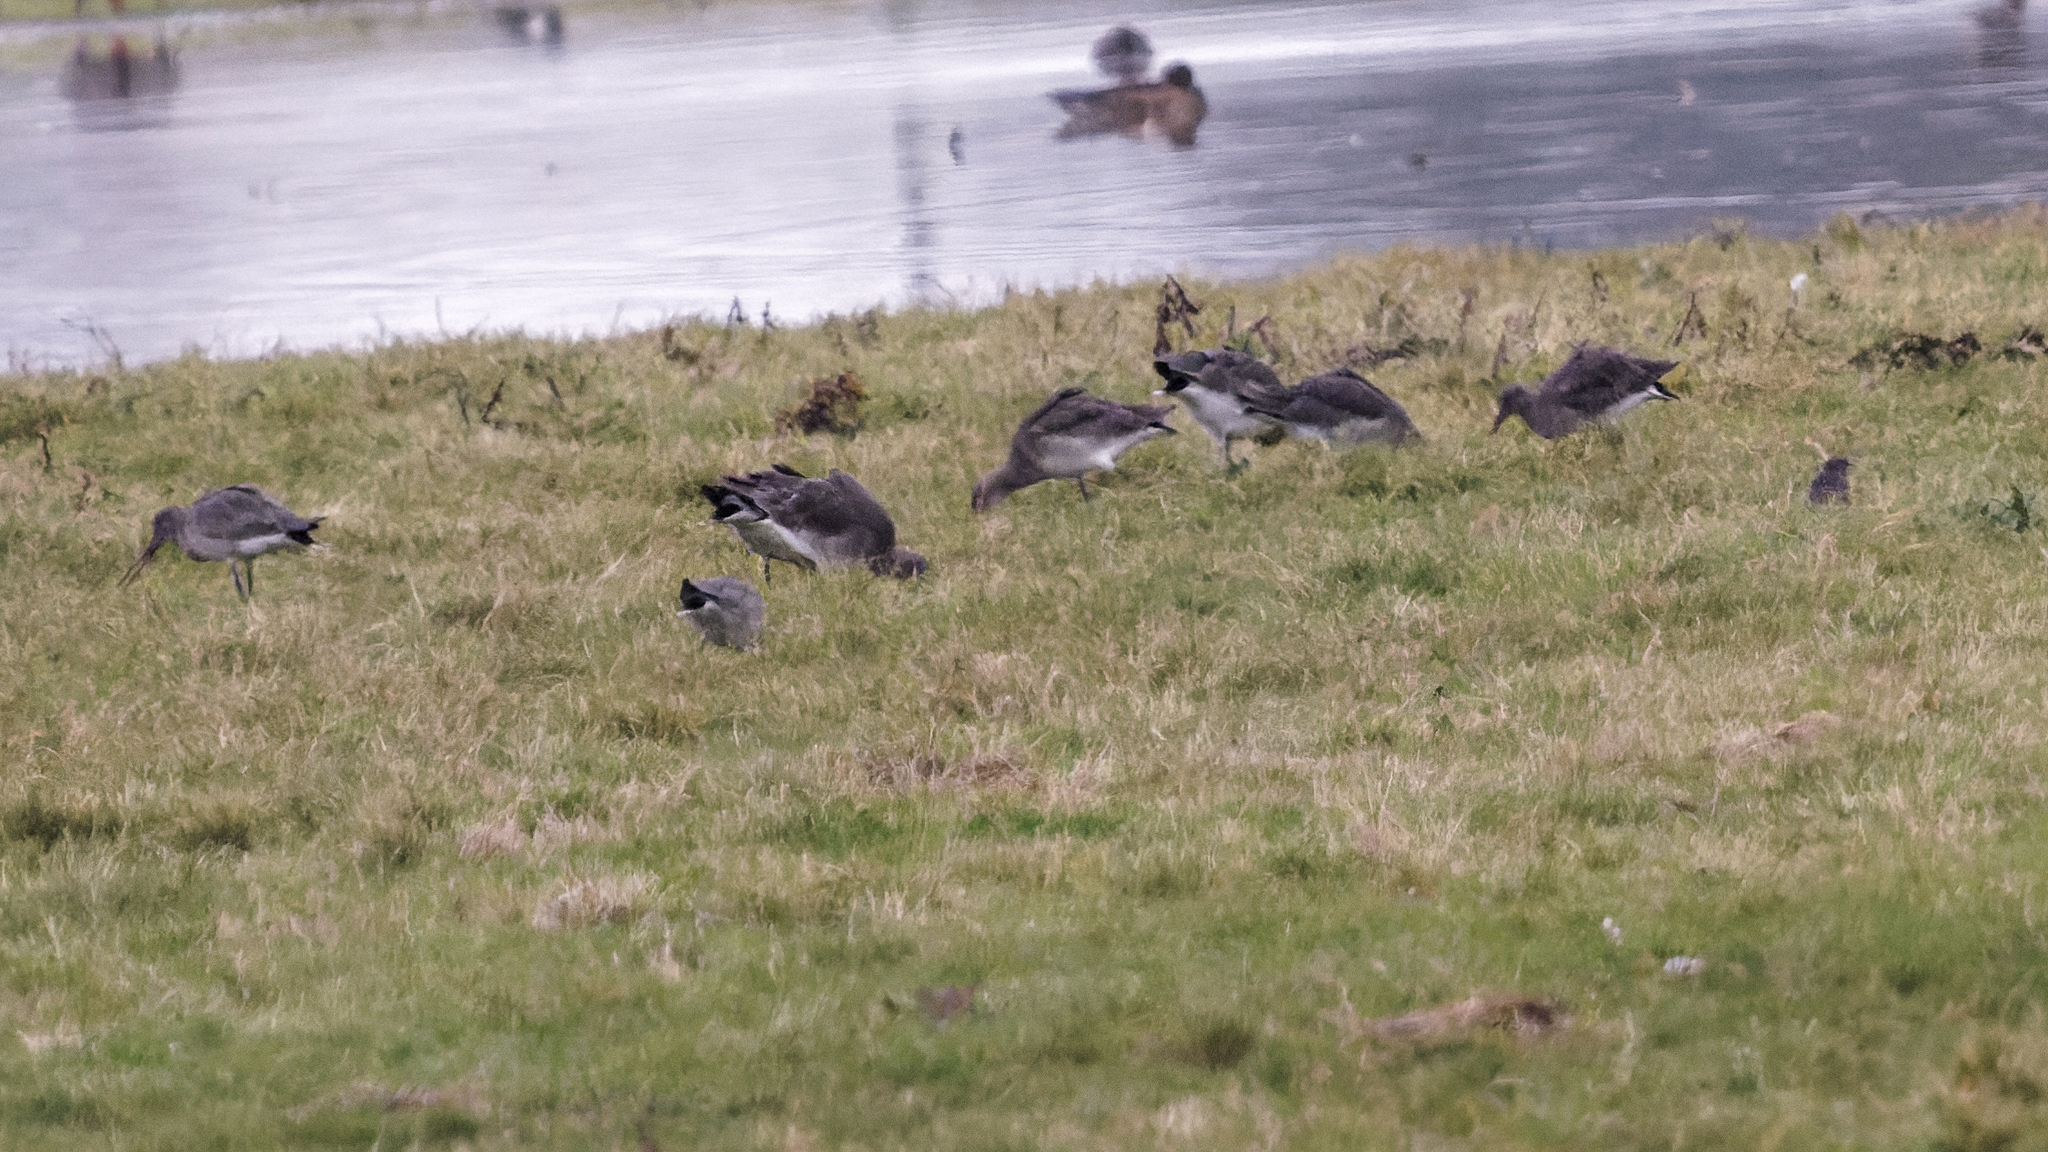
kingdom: Animalia
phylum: Chordata
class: Aves
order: Charadriiformes
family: Scolopacidae
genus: Limosa
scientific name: Limosa limosa
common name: Black-tailed godwit
